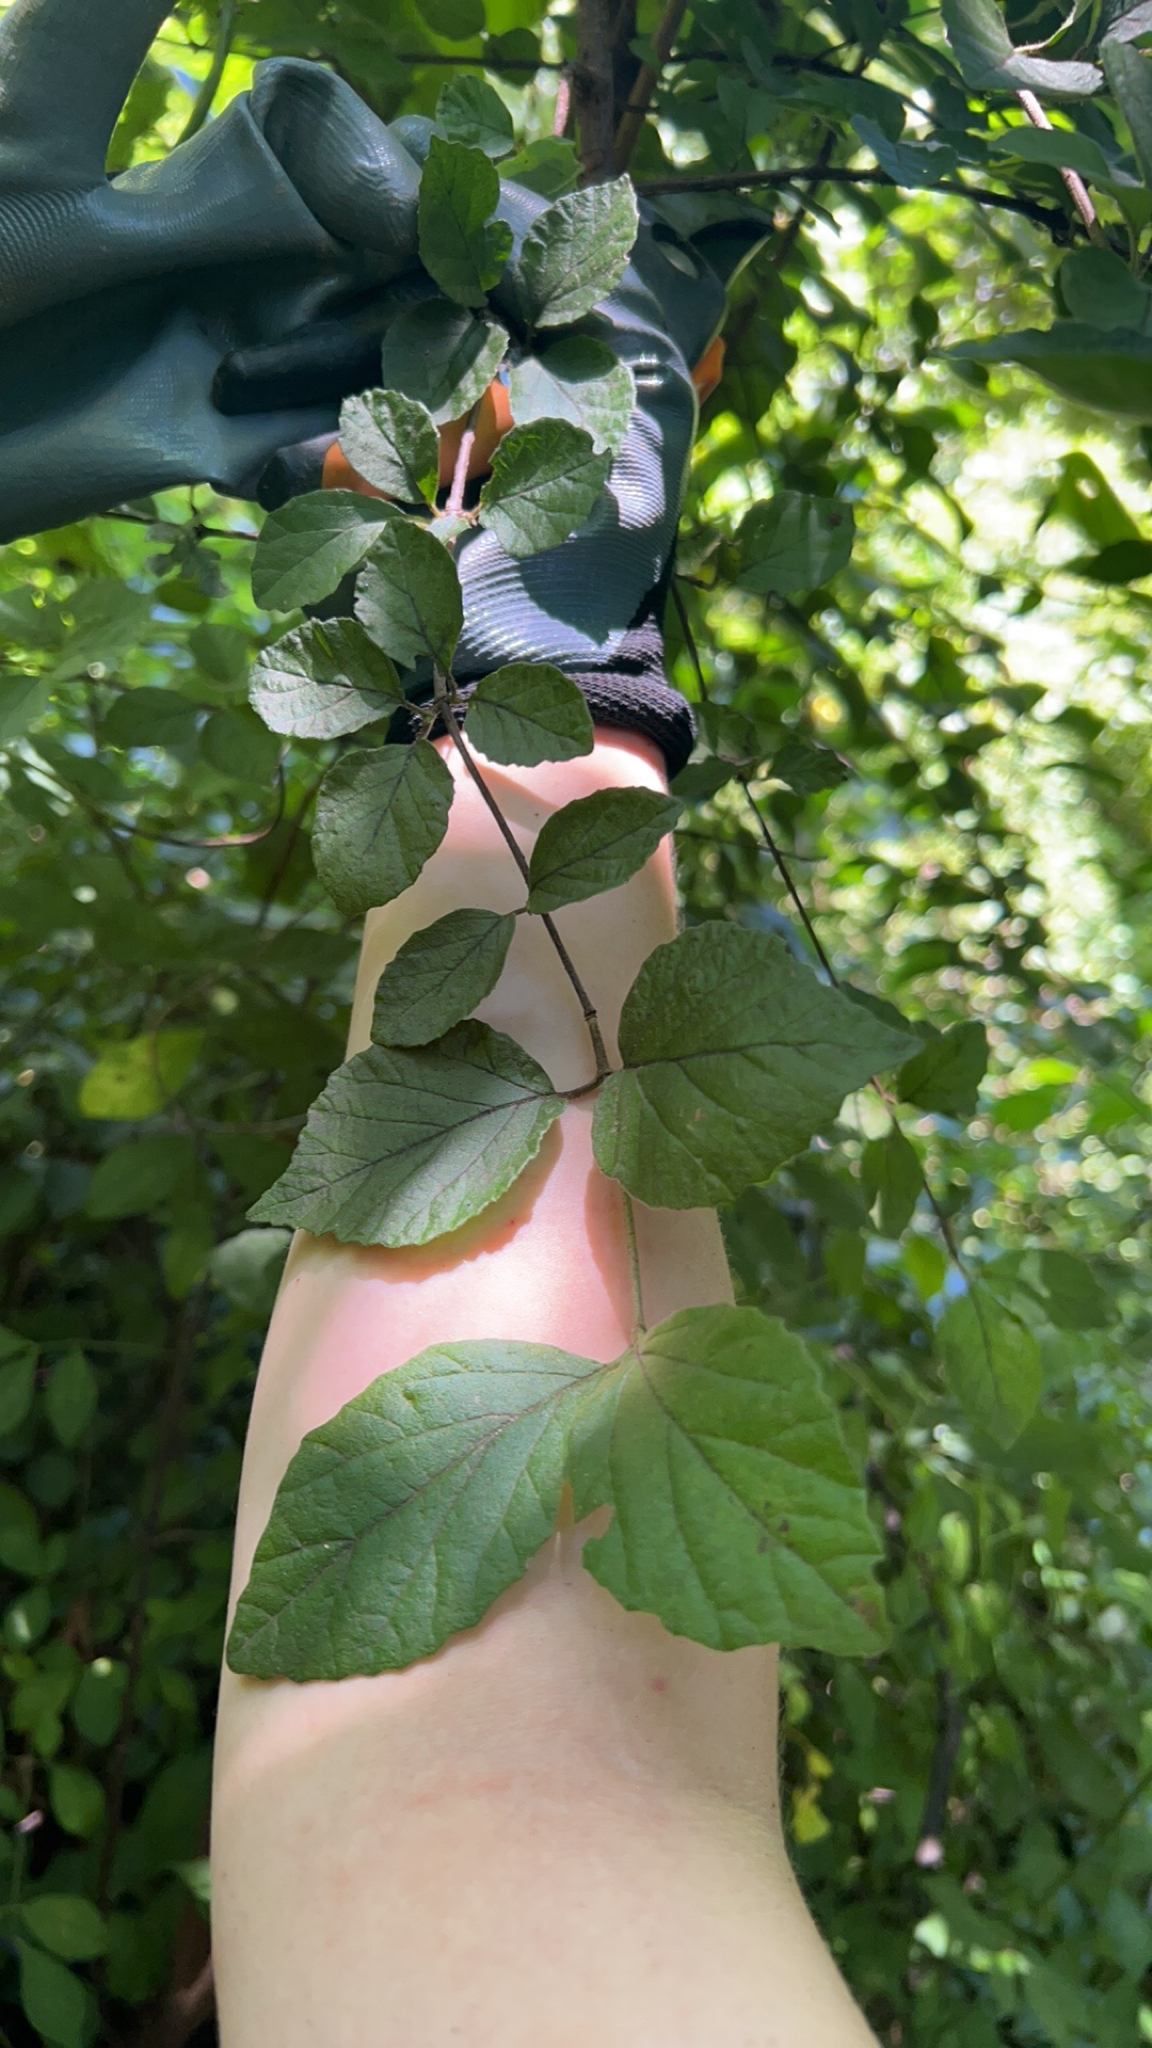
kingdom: Plantae
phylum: Tracheophyta
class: Magnoliopsida
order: Dipsacales
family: Viburnaceae
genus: Viburnum
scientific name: Viburnum dilatatum
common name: Linden arrowwood
